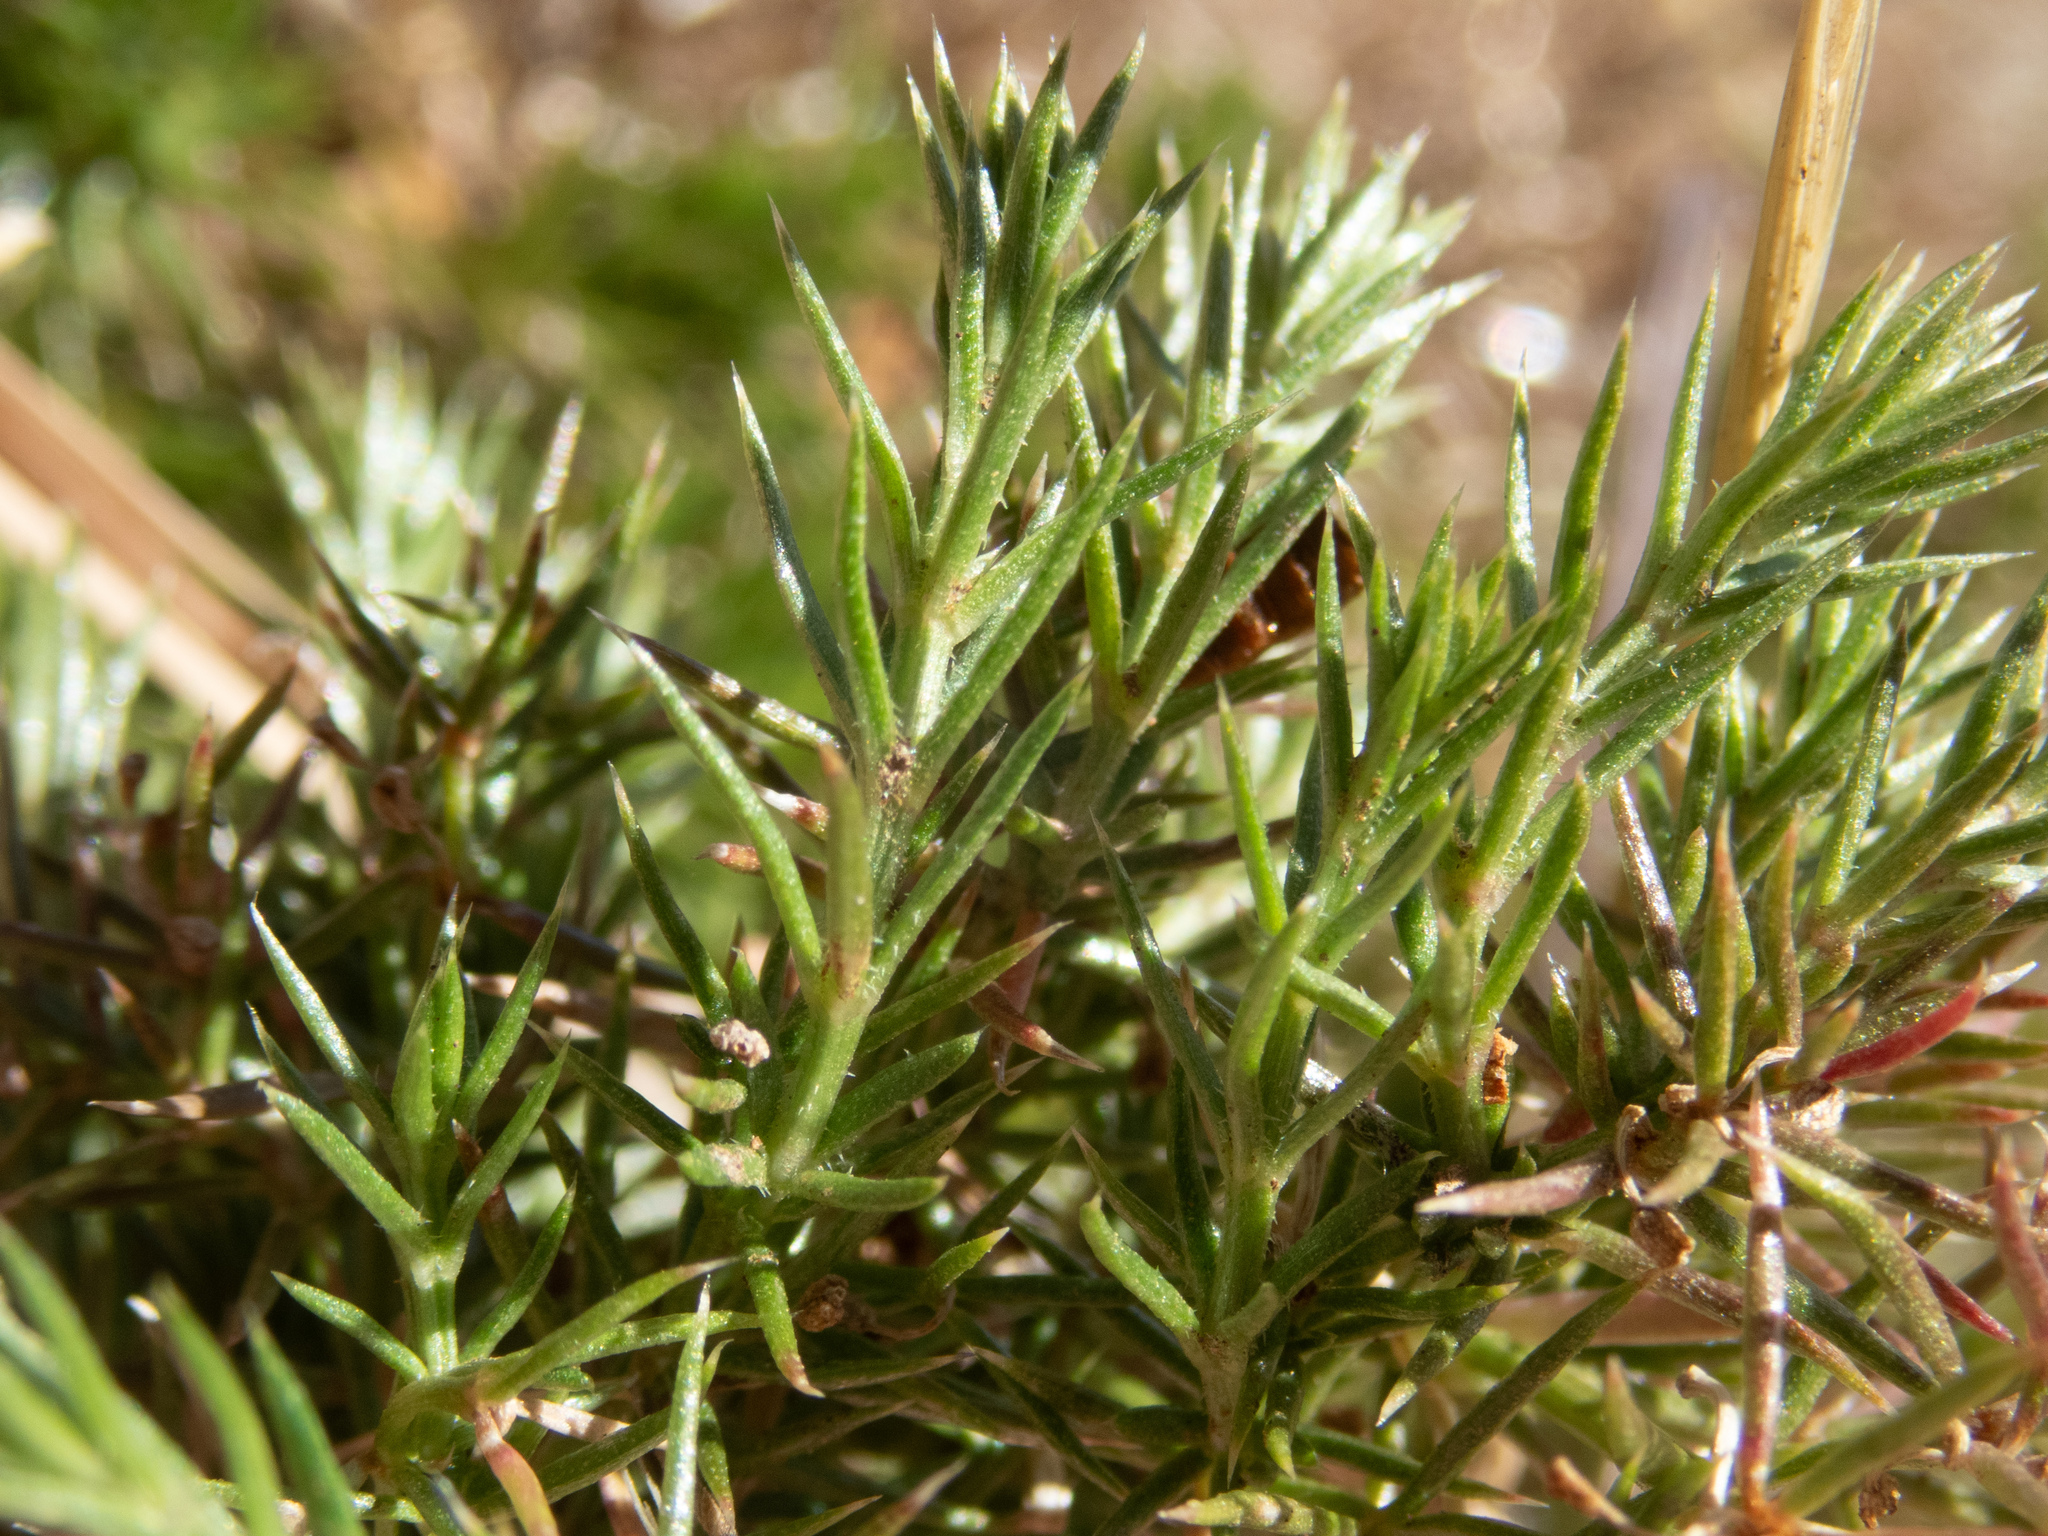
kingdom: Plantae
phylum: Tracheophyta
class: Magnoliopsida
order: Gentianales
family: Rubiaceae
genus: Galium
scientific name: Galium andrewsii
